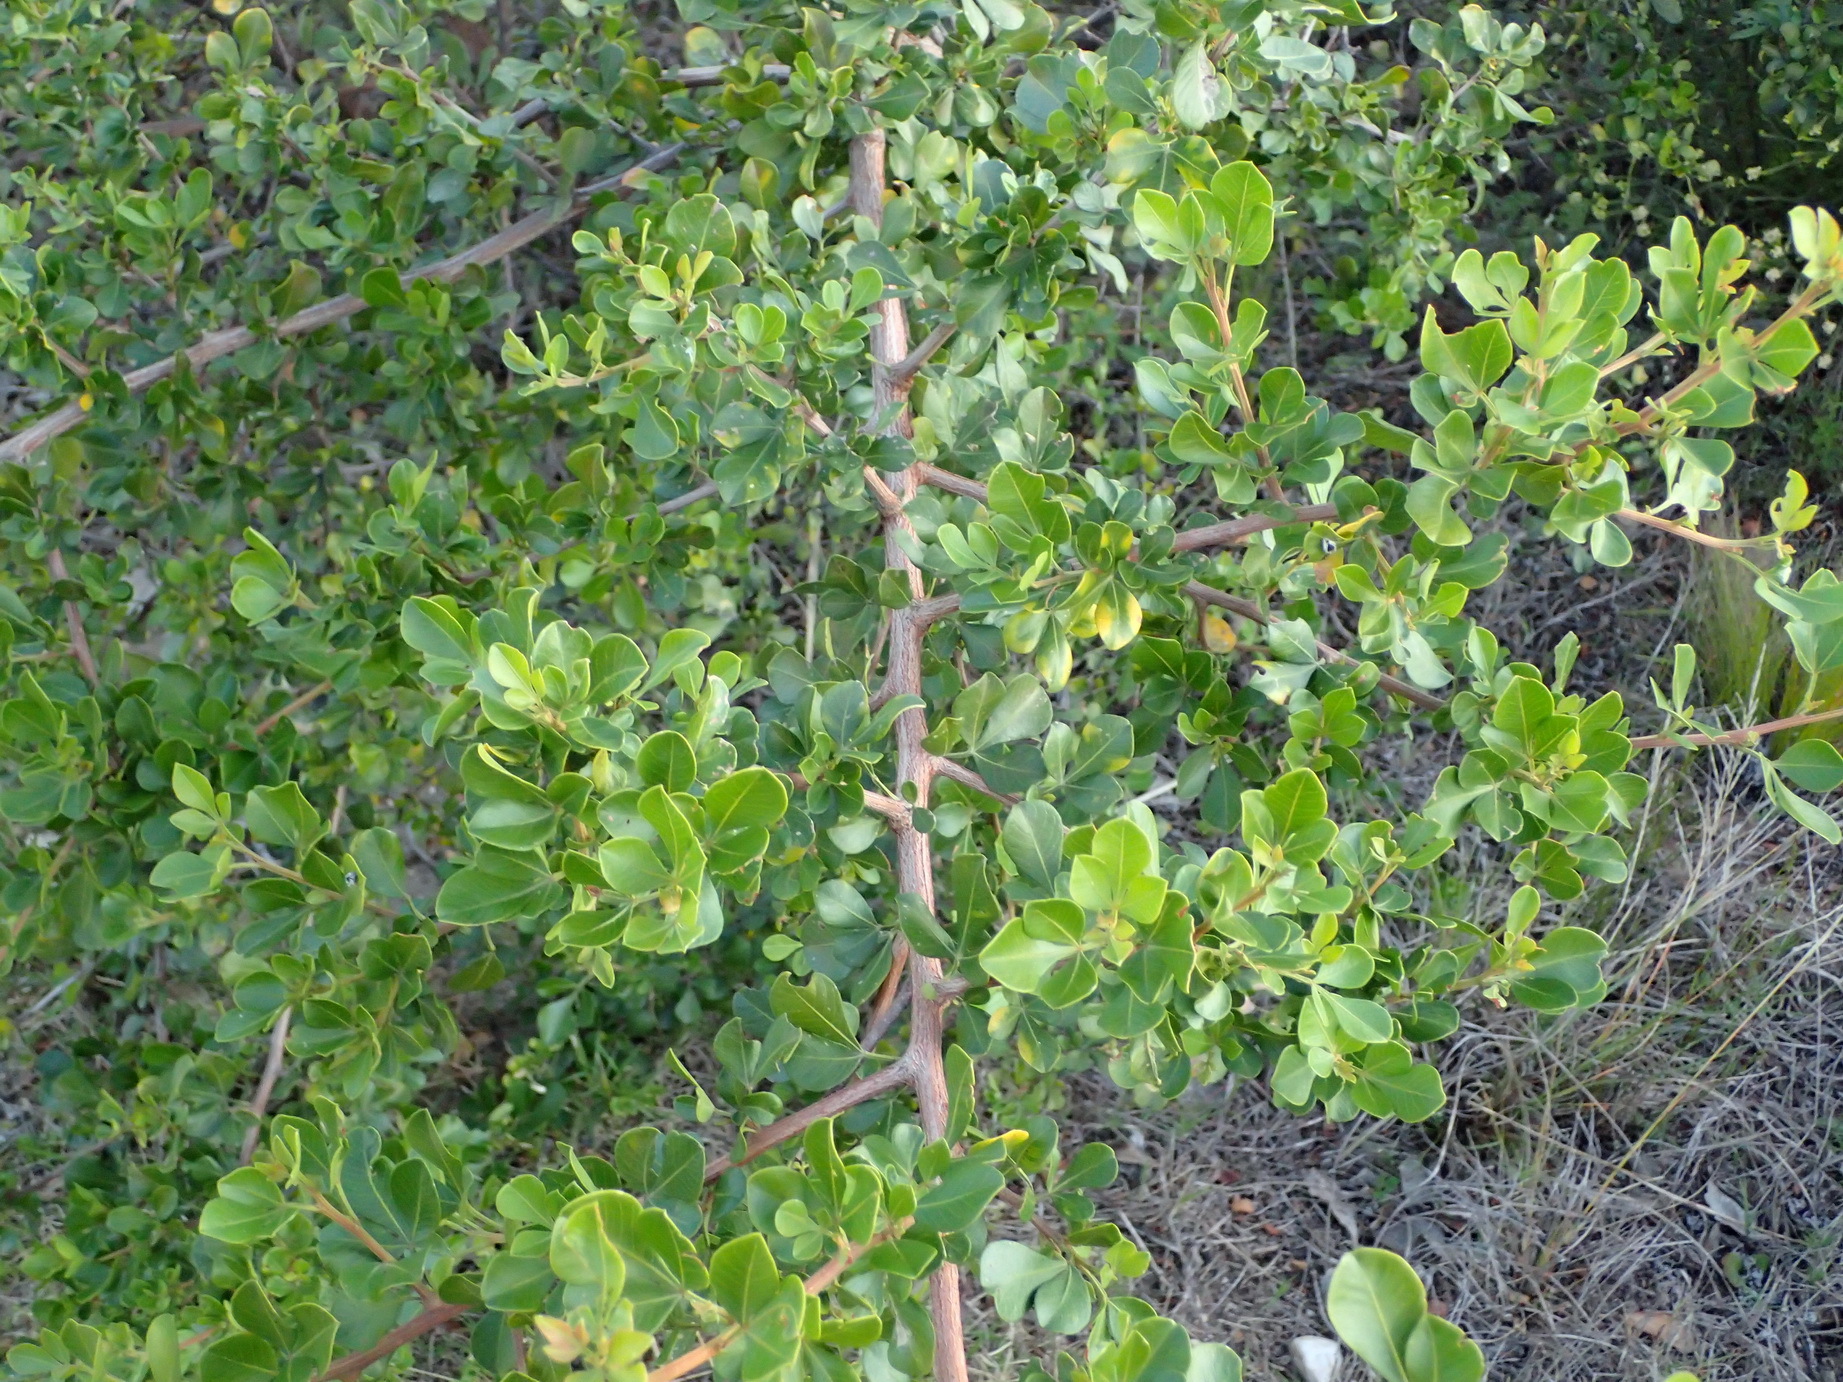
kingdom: Plantae
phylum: Tracheophyta
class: Magnoliopsida
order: Sapindales
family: Anacardiaceae
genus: Searsia
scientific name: Searsia glauca
